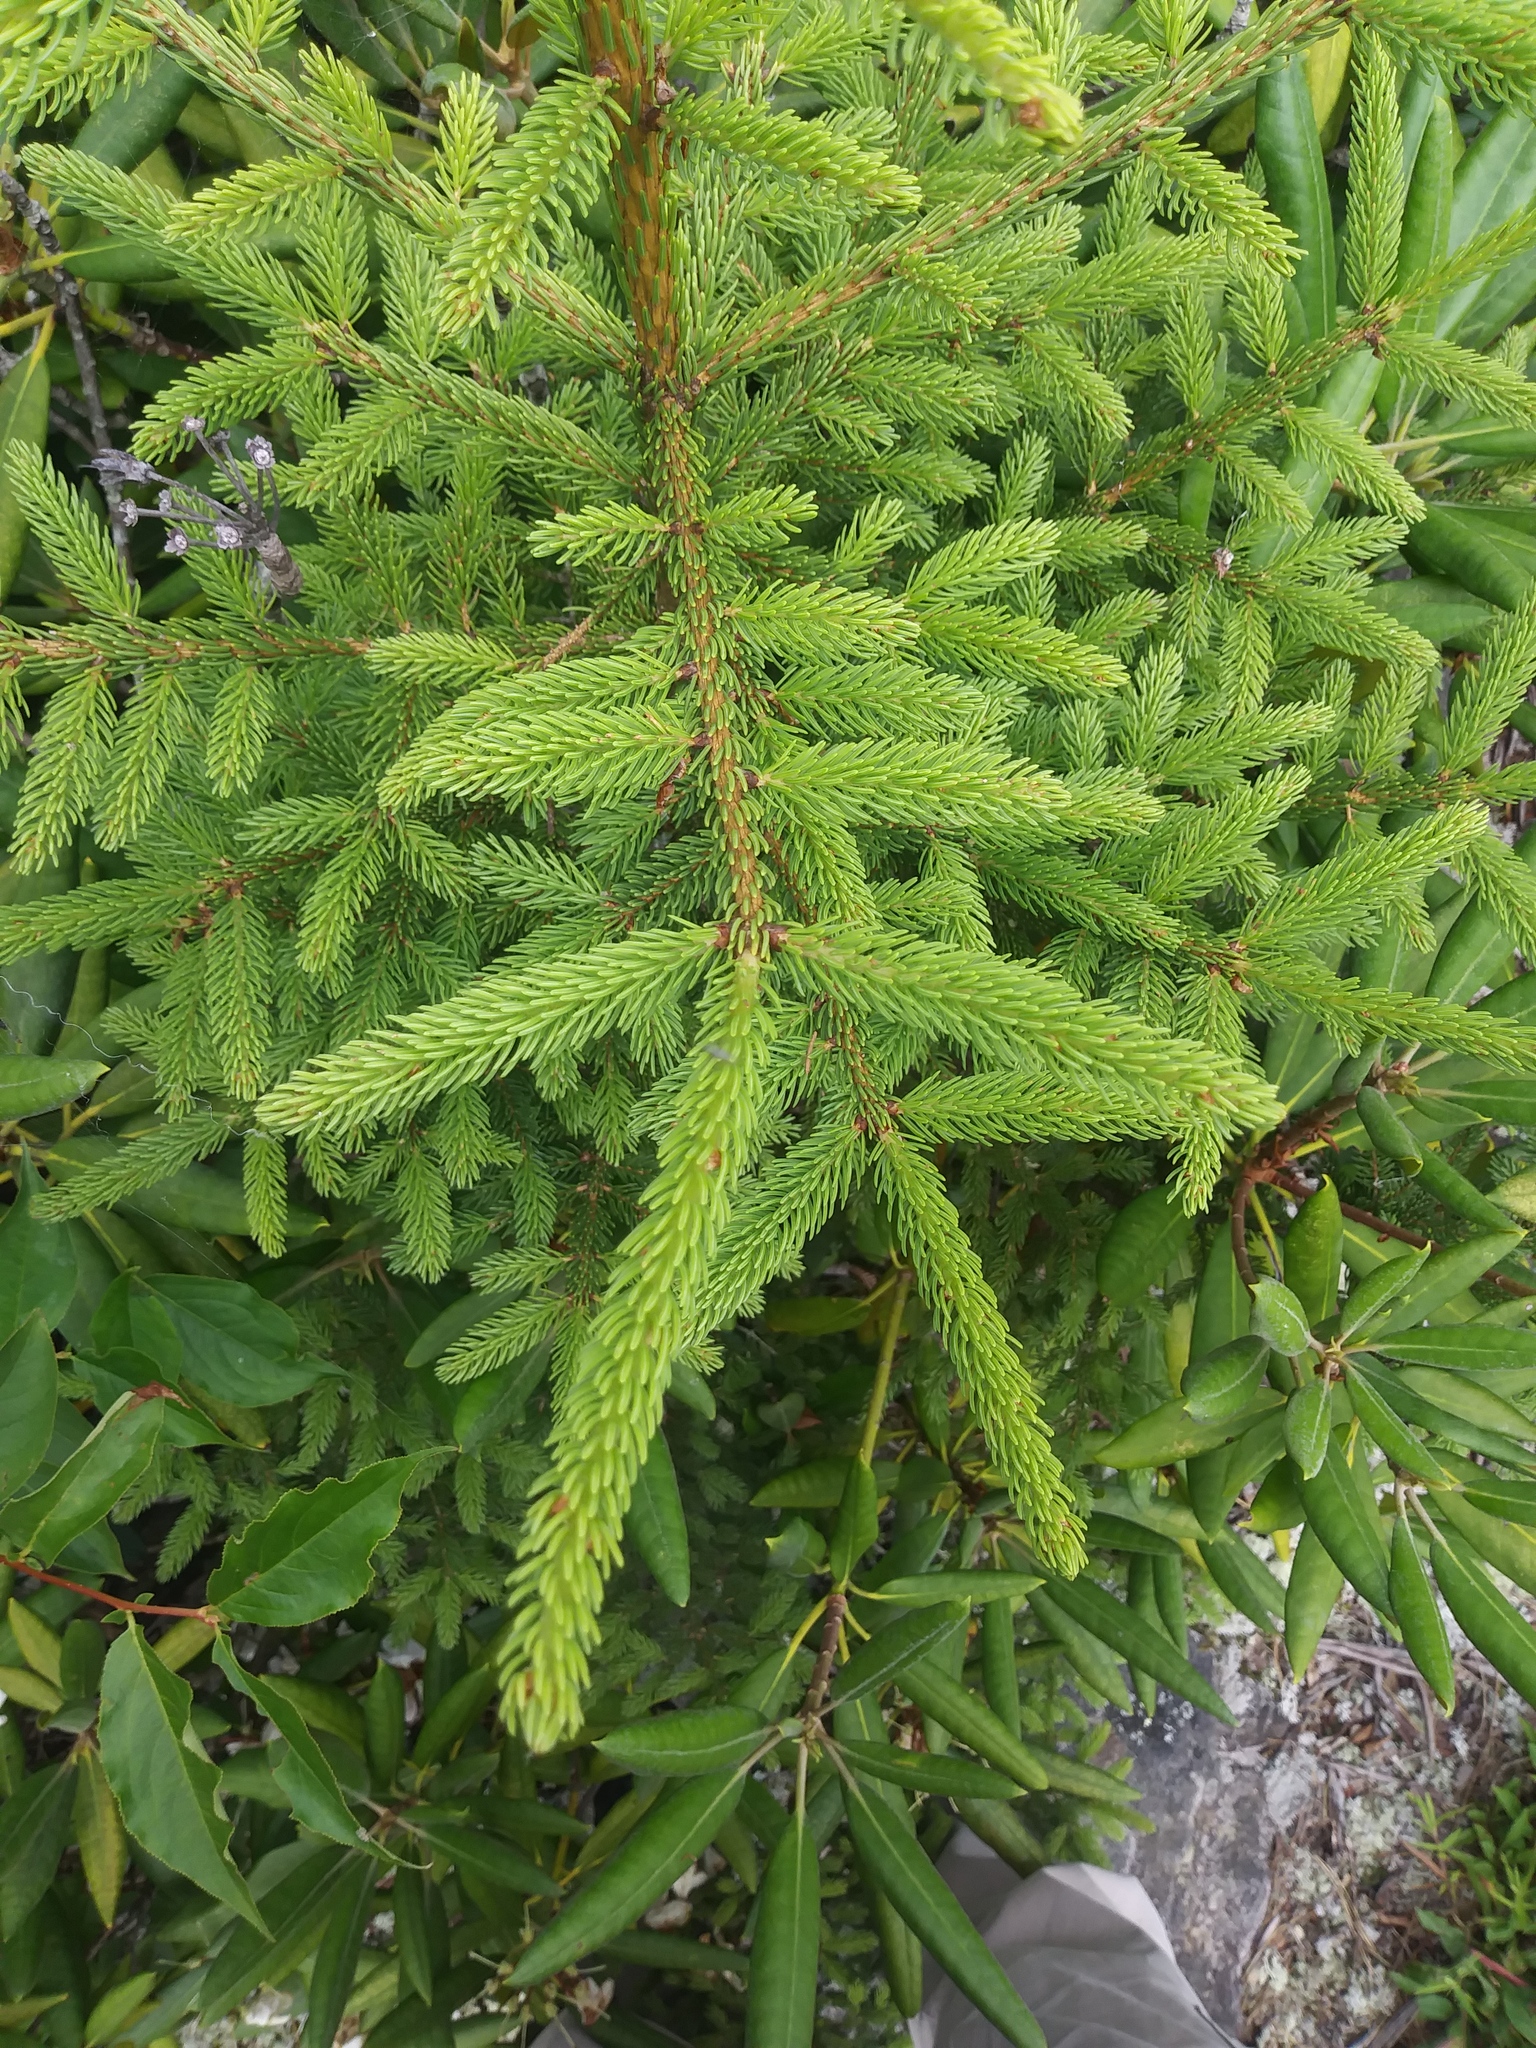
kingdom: Plantae
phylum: Tracheophyta
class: Pinopsida
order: Pinales
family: Pinaceae
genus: Picea
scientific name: Picea rubens
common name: Red spruce
